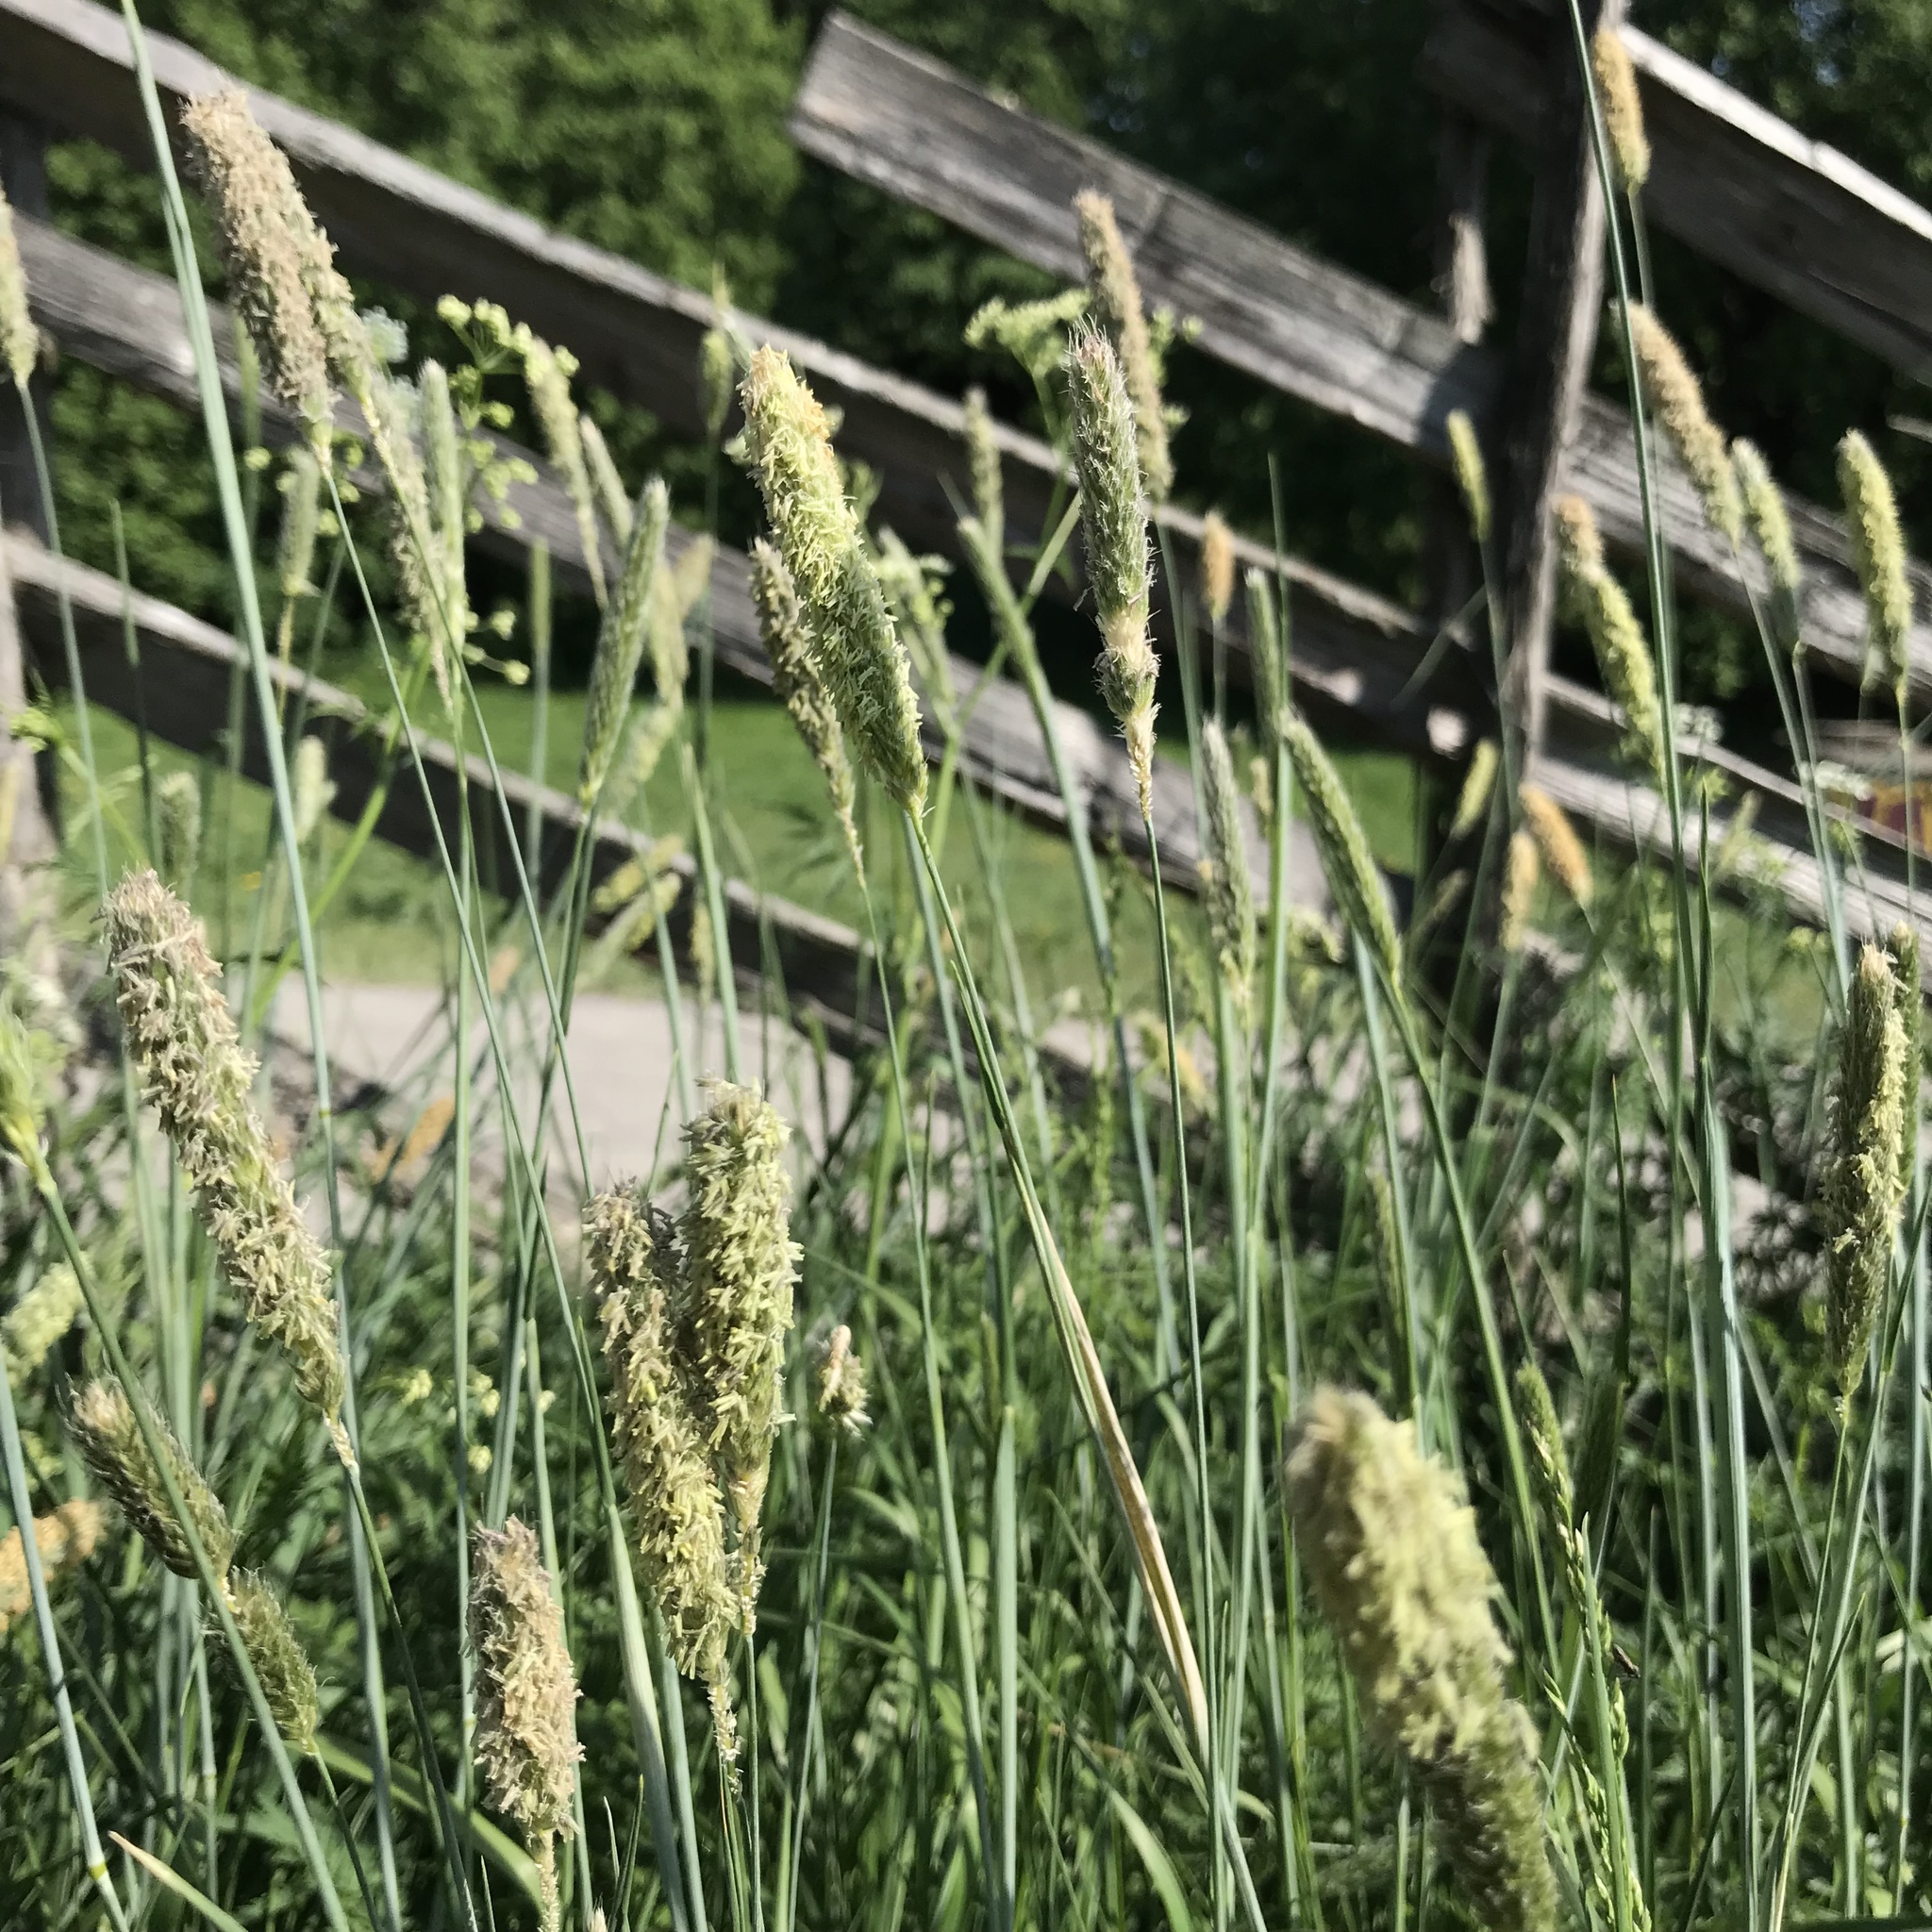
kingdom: Plantae
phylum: Tracheophyta
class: Liliopsida
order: Poales
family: Poaceae
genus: Alopecurus
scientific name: Alopecurus pratensis
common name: Meadow foxtail
